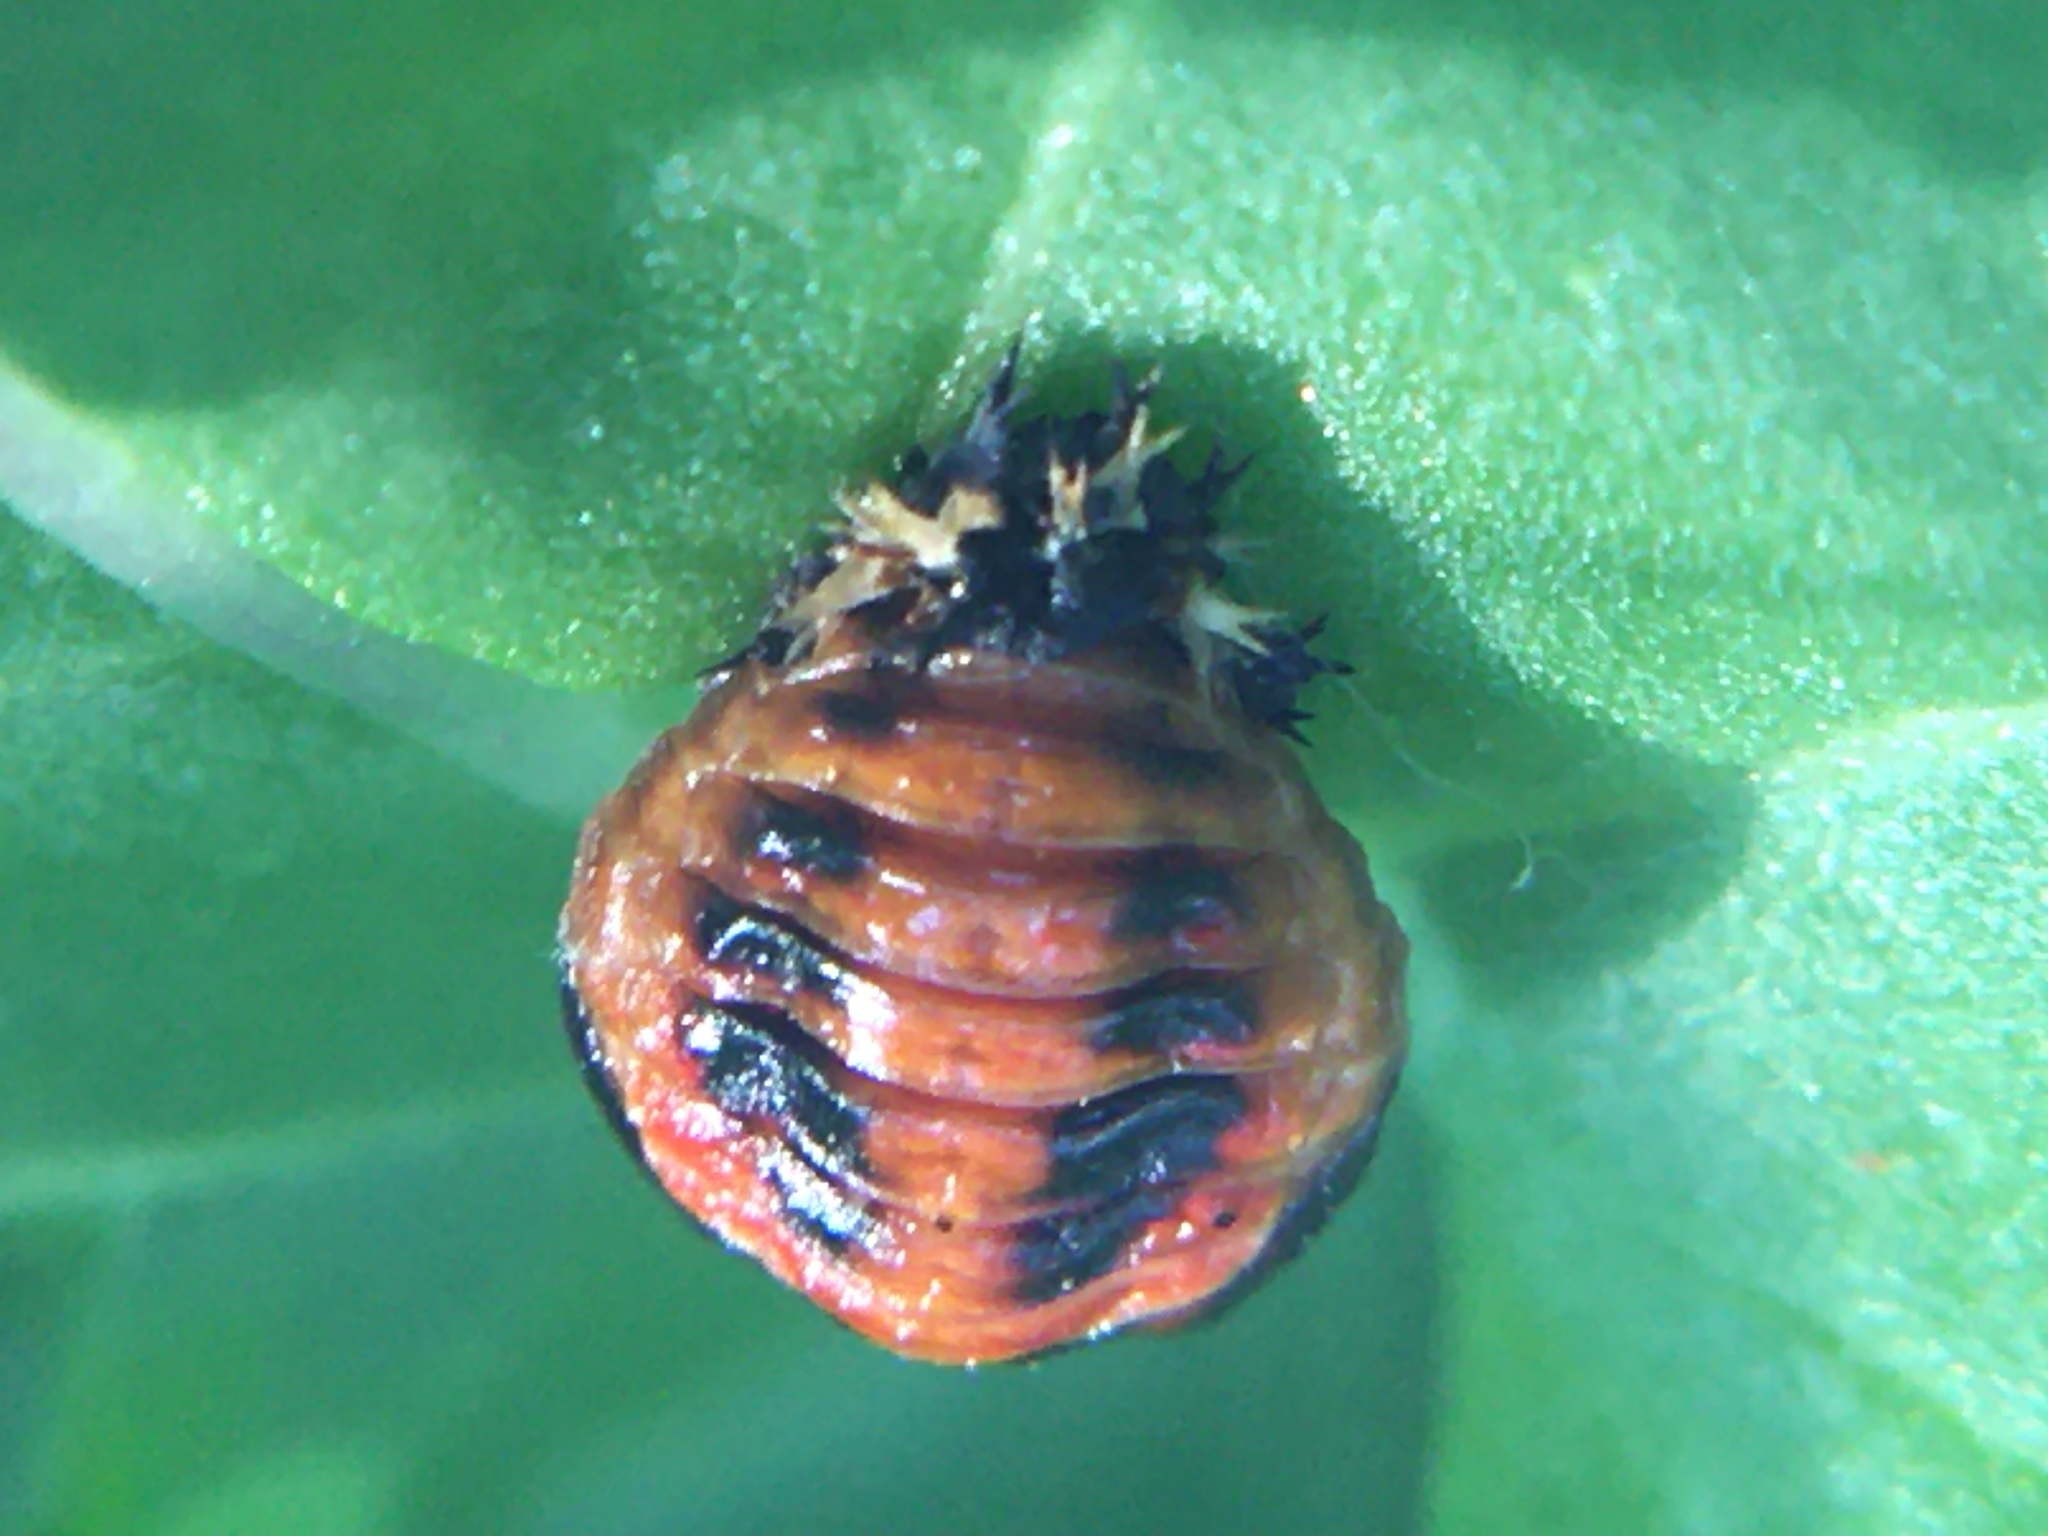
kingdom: Animalia
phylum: Arthropoda
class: Insecta
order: Coleoptera
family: Coccinellidae
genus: Harmonia
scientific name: Harmonia axyridis
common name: Harlequin ladybird
